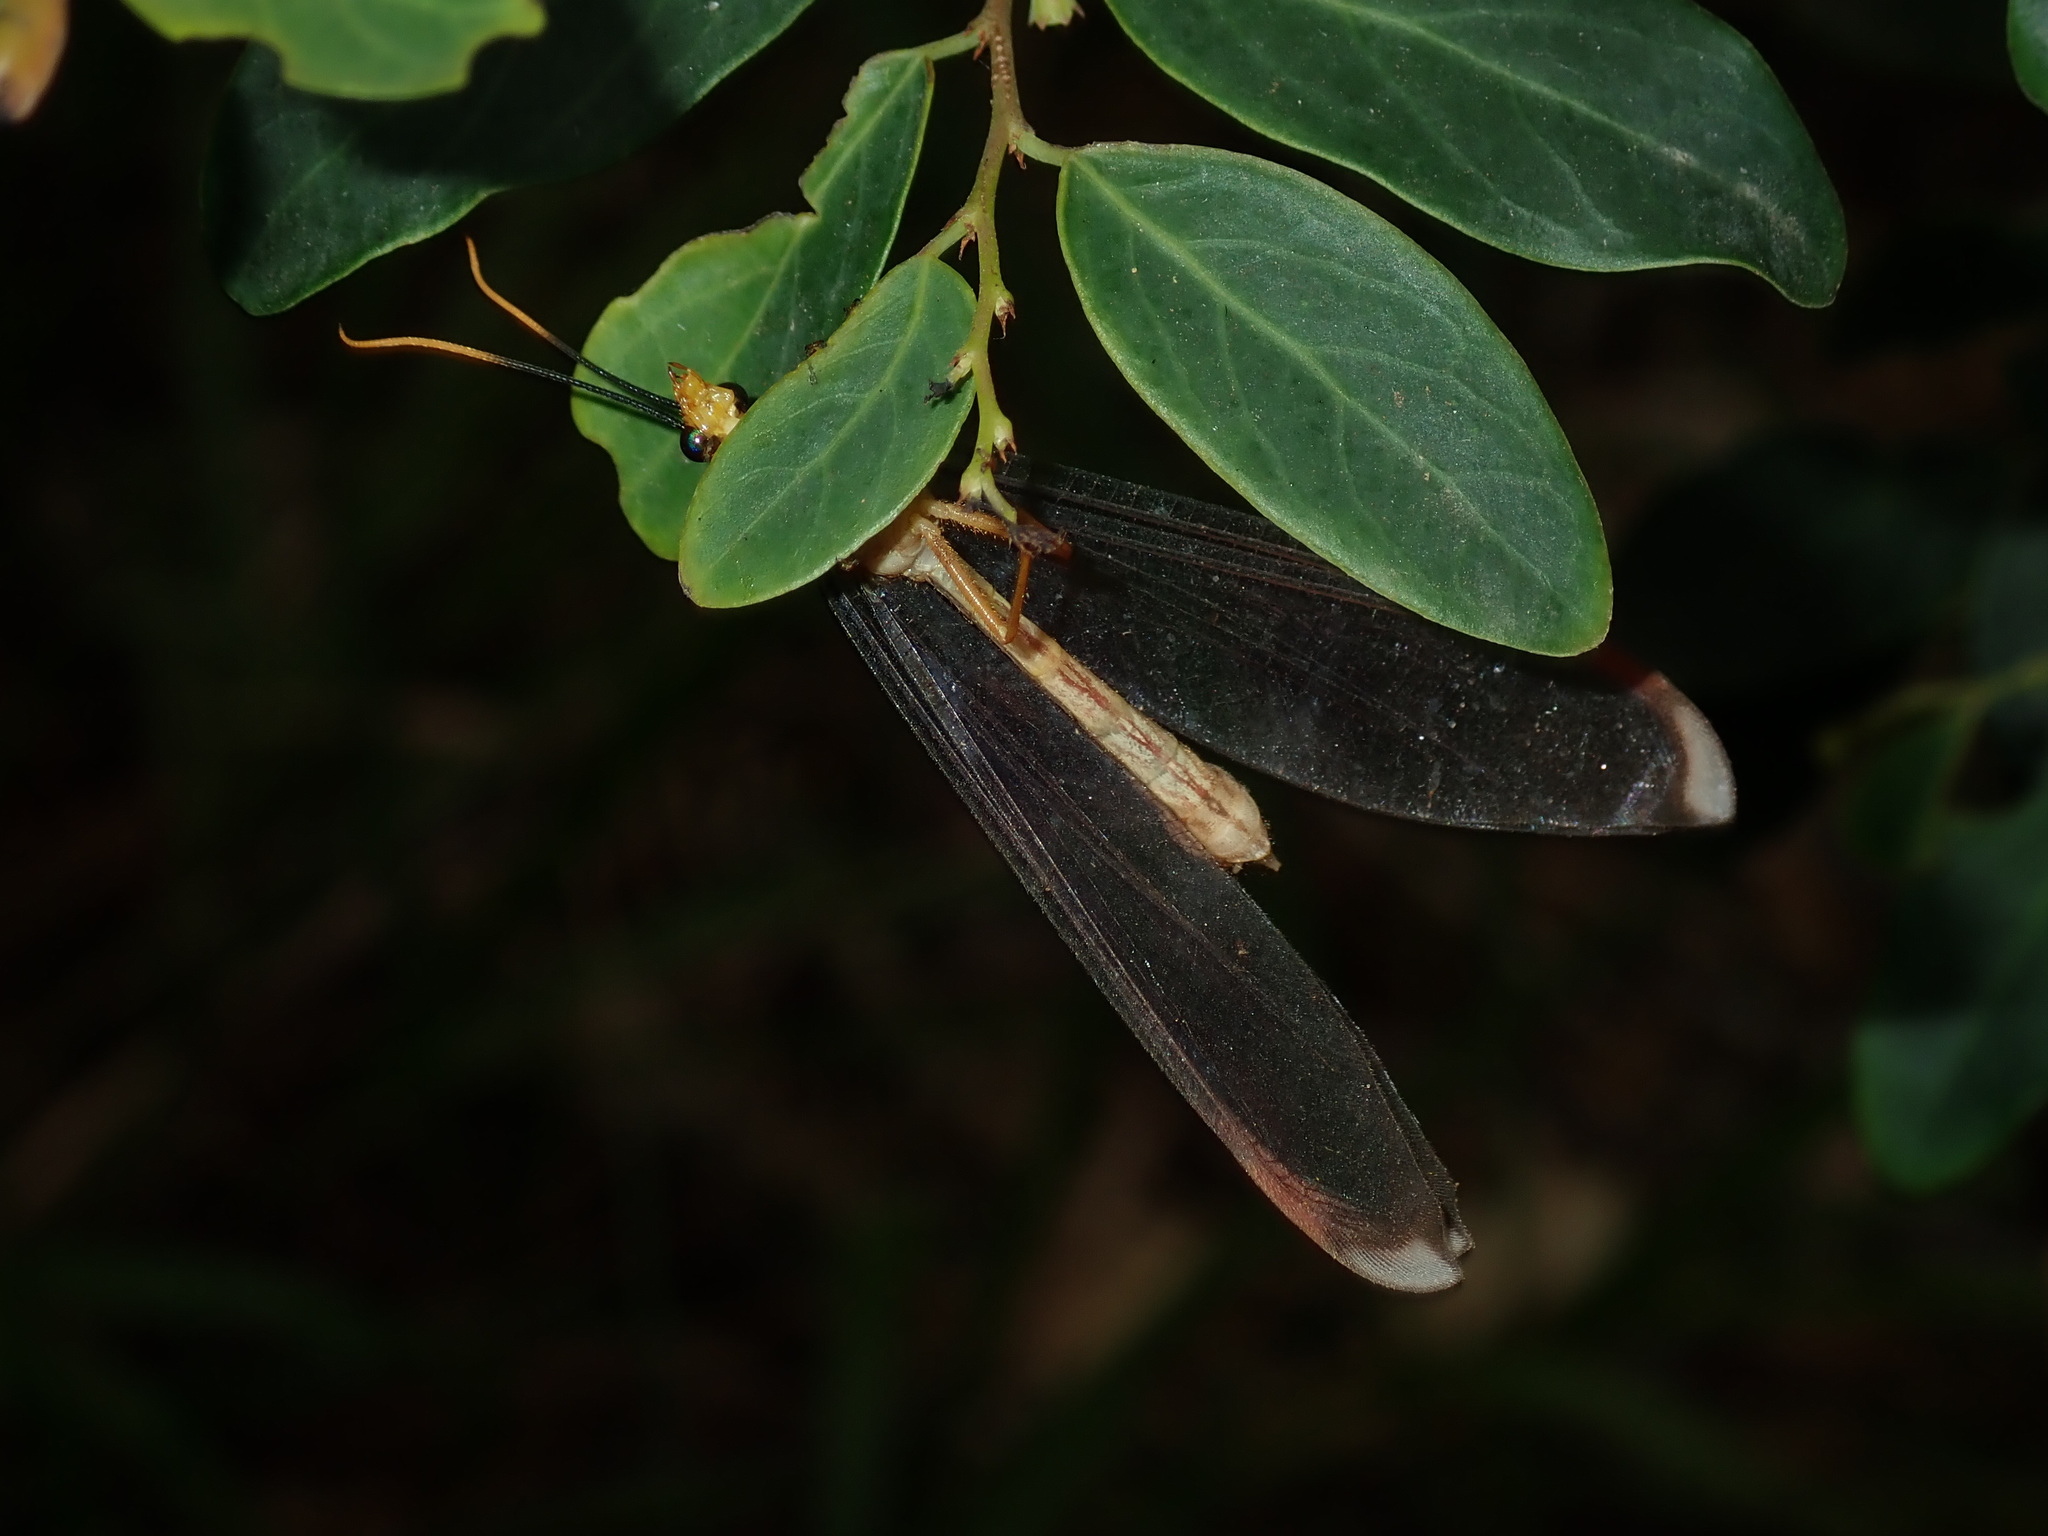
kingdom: Animalia
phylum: Arthropoda
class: Insecta
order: Neuroptera
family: Nymphidae
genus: Nymphes
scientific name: Nymphes myrmeleonoides
